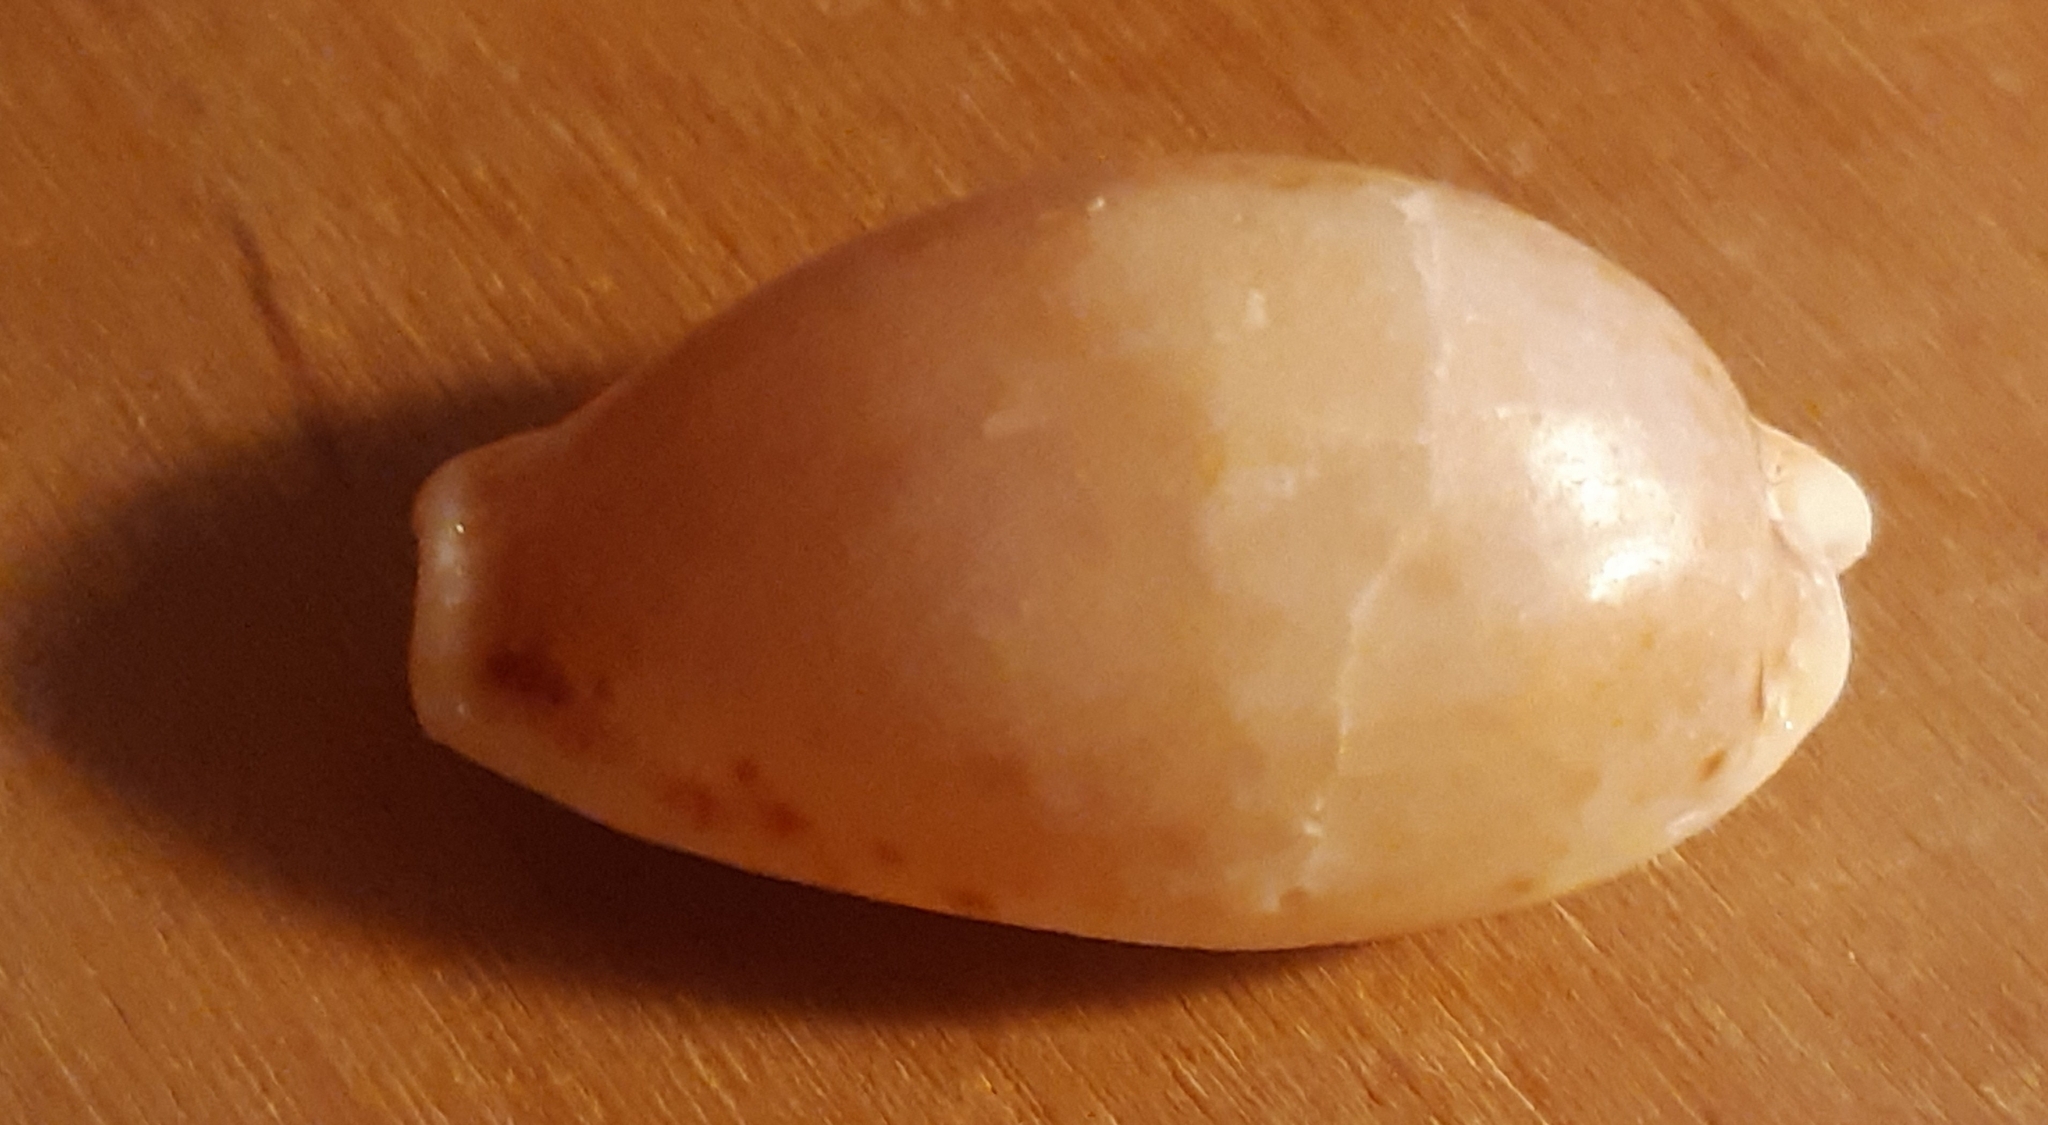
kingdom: Animalia
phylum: Mollusca
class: Gastropoda
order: Littorinimorpha
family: Cypraeidae
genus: Naria
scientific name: Naria spurca
